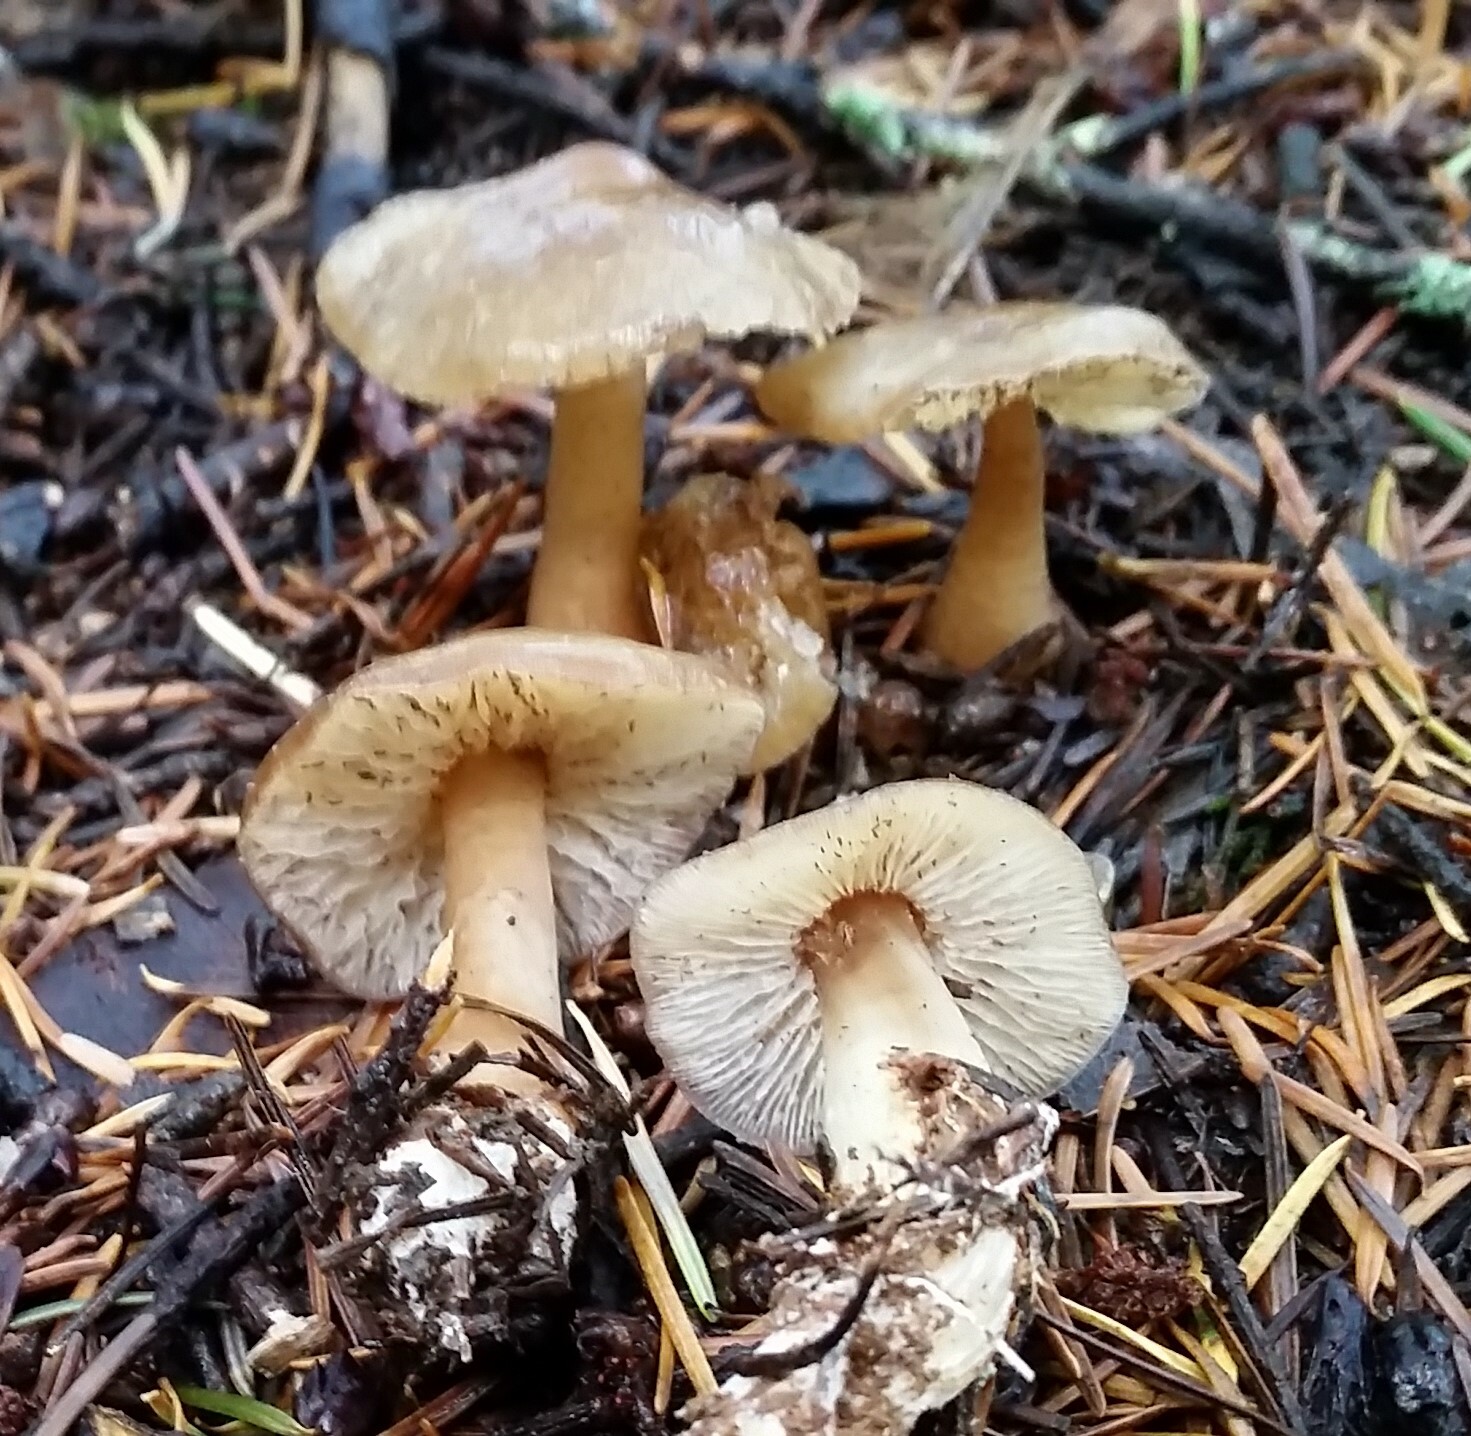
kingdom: Fungi
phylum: Basidiomycota
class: Agaricomycetes
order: Agaricales
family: Omphalotaceae
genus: Rhodocollybia
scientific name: Rhodocollybia butyracea
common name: Butter cap
